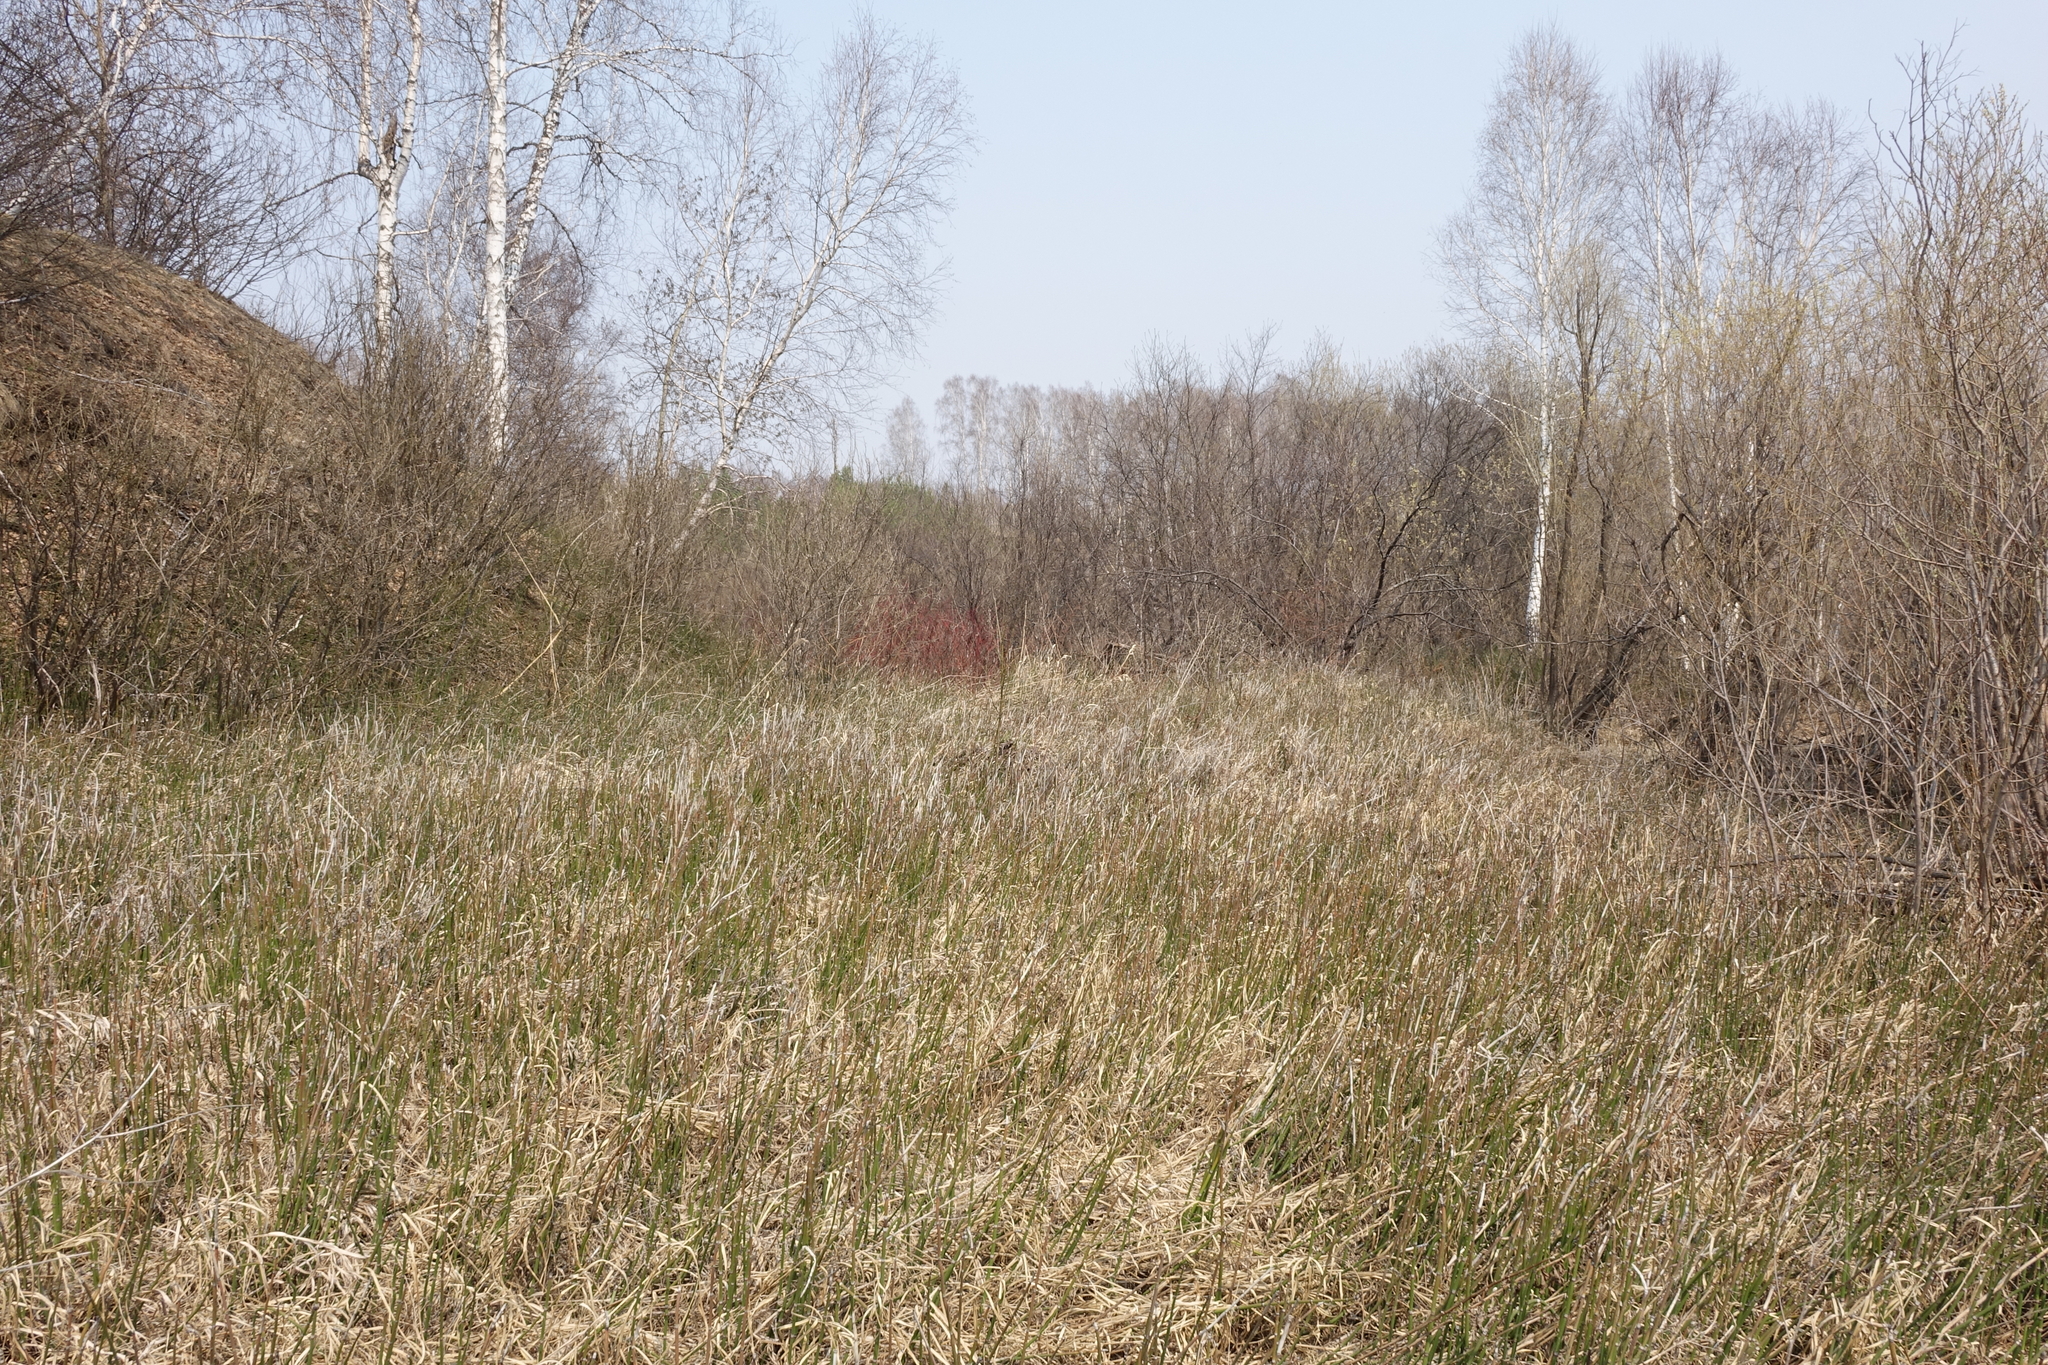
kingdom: Plantae
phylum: Tracheophyta
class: Polypodiopsida
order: Equisetales
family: Equisetaceae
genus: Equisetum
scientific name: Equisetum hyemale
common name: Rough horsetail
